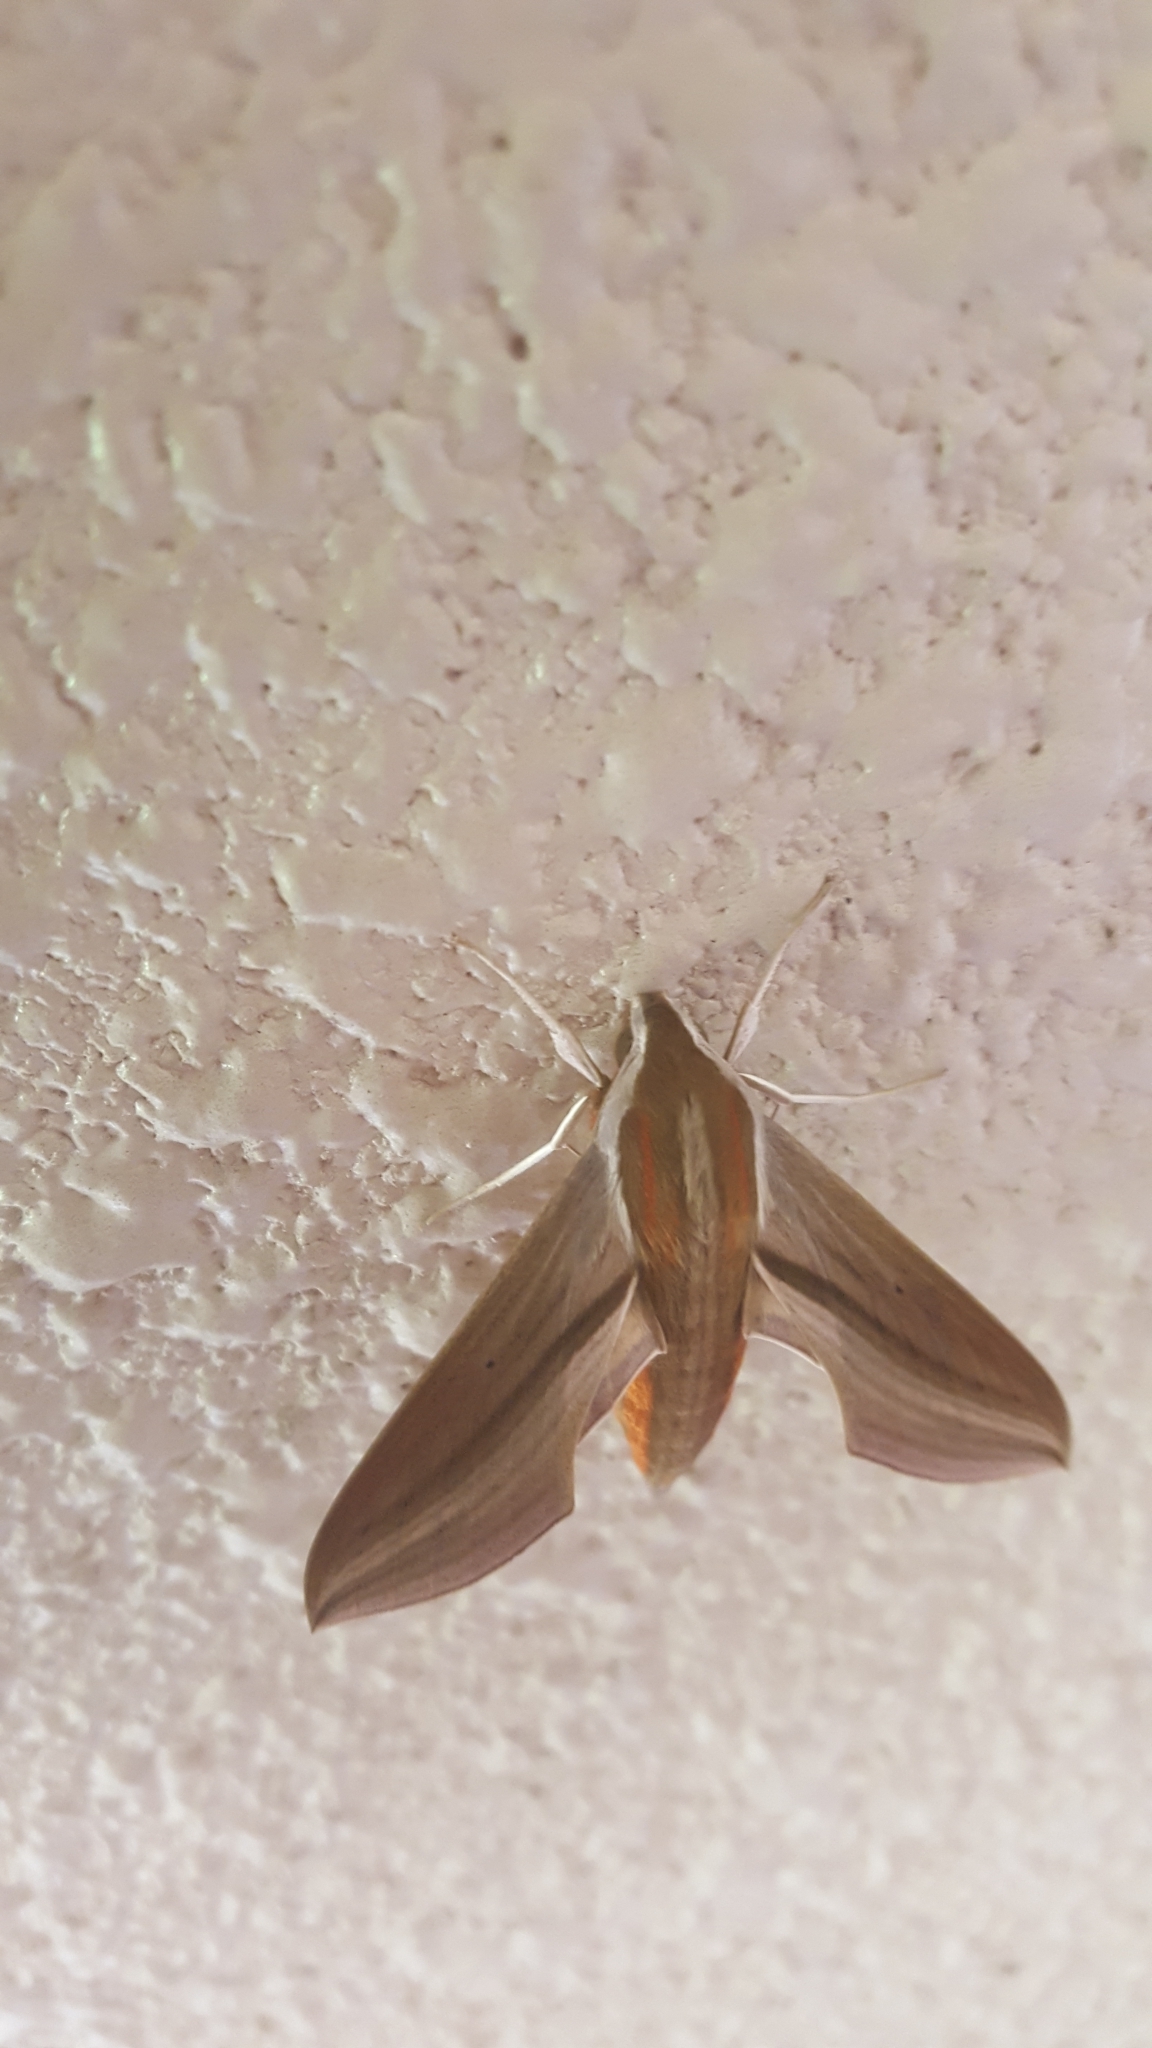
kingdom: Animalia
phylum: Arthropoda
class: Insecta
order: Lepidoptera
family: Sphingidae
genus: Theretra
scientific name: Theretra japonica
